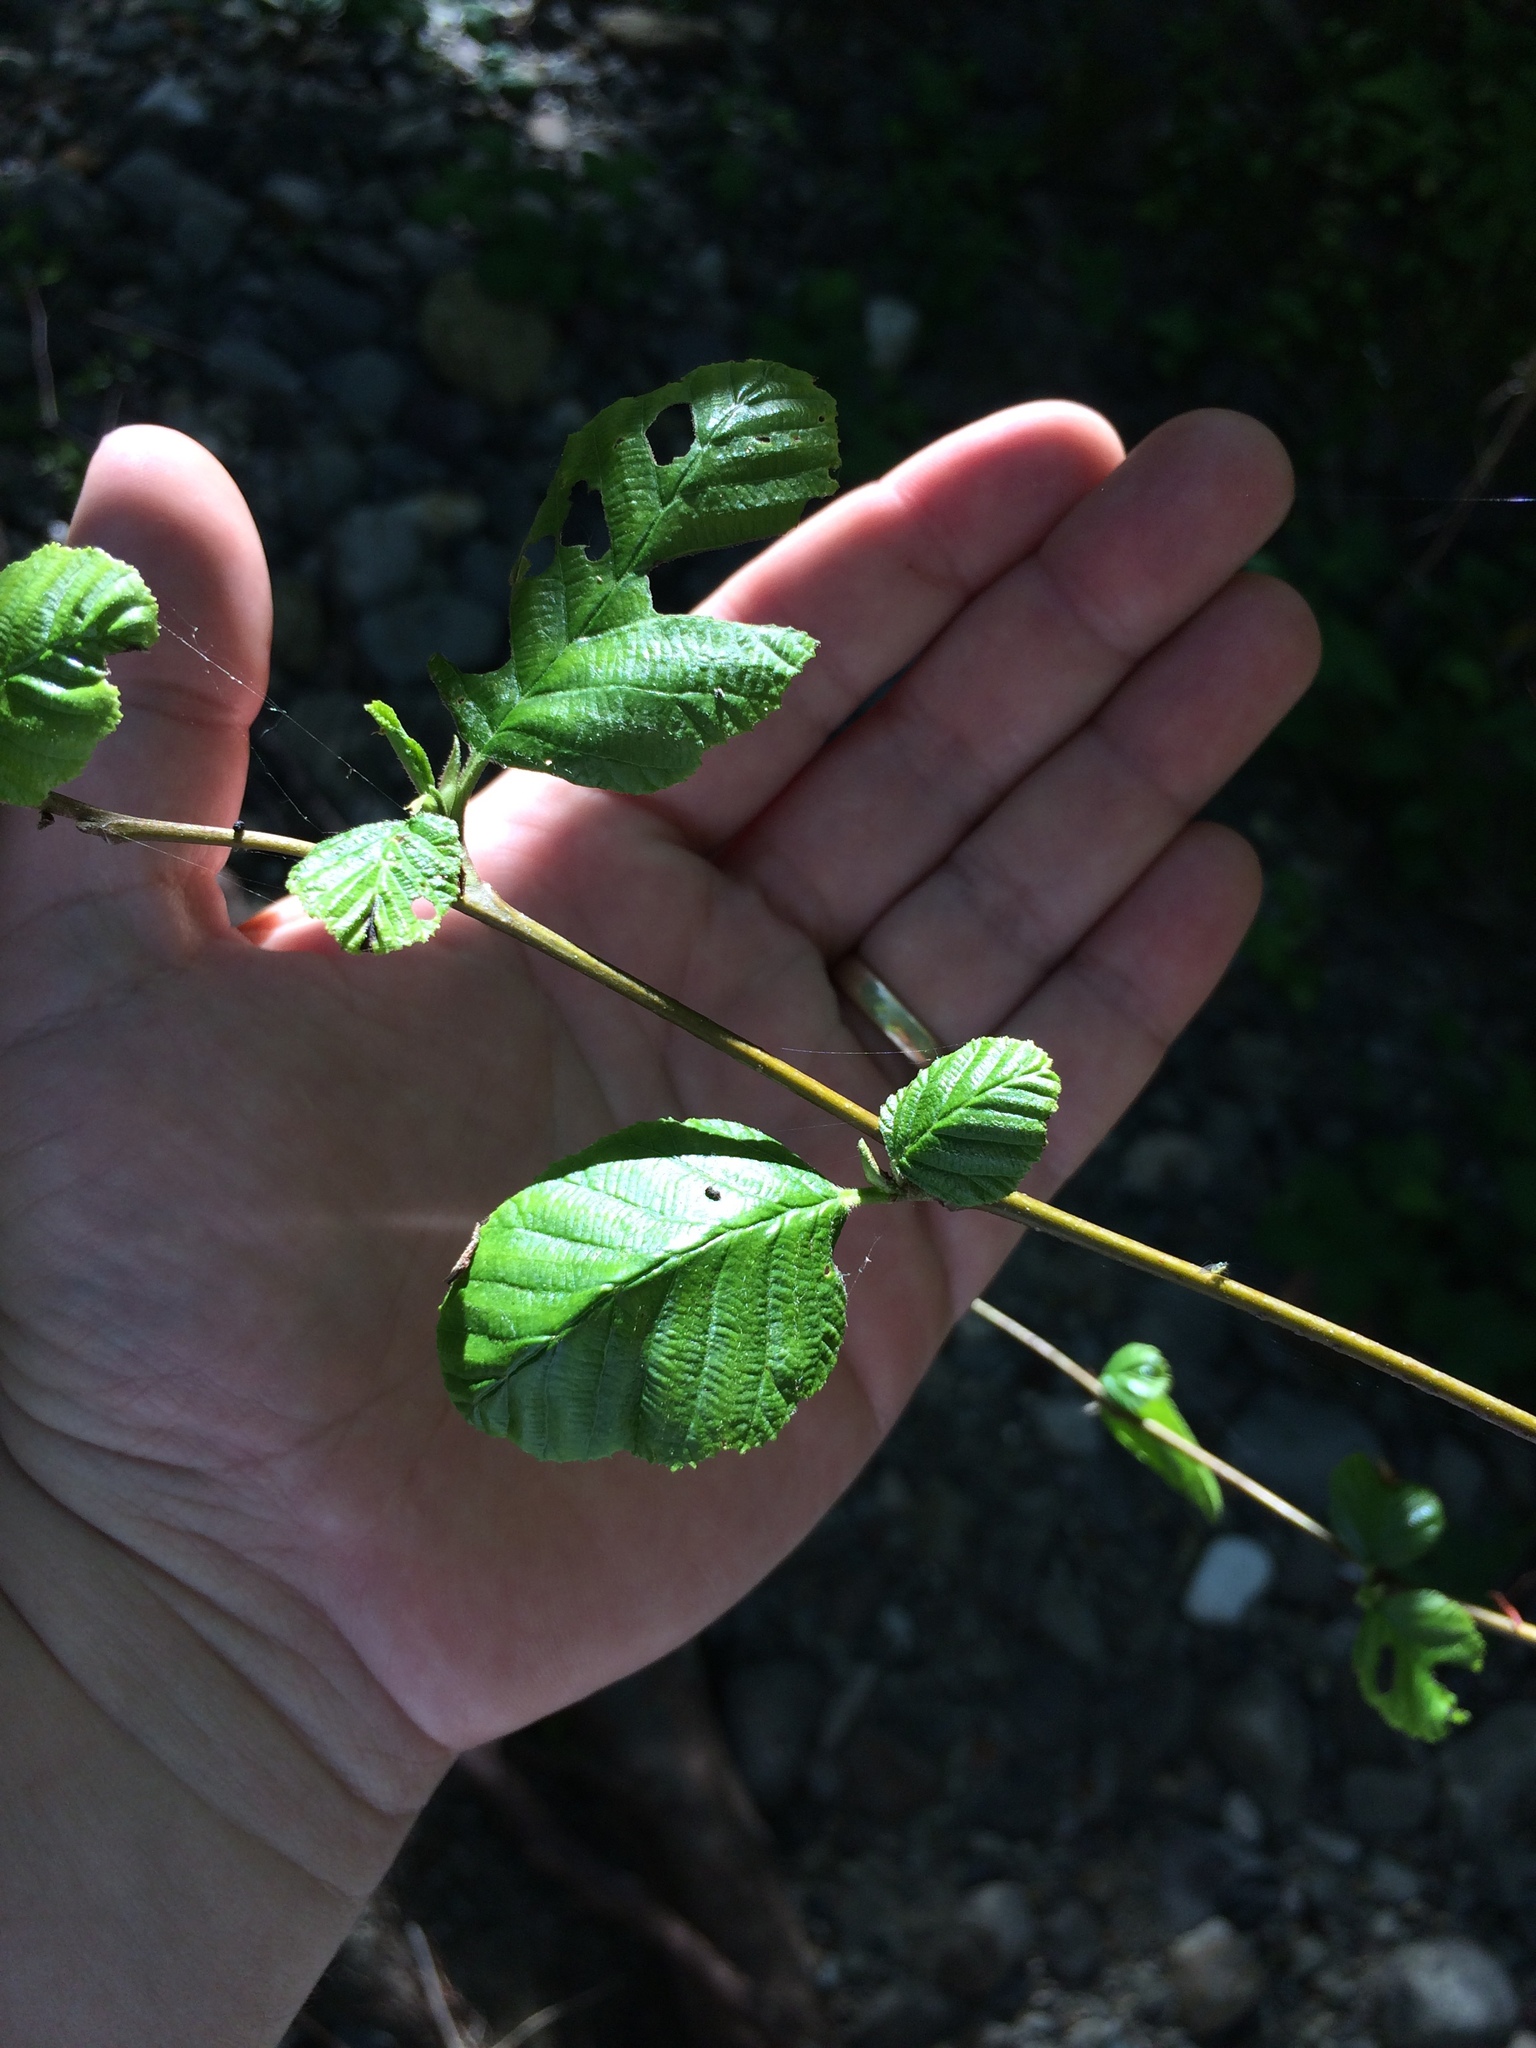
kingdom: Plantae
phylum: Tracheophyta
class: Magnoliopsida
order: Fagales
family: Betulaceae
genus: Alnus
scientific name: Alnus rhombifolia
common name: California alder
